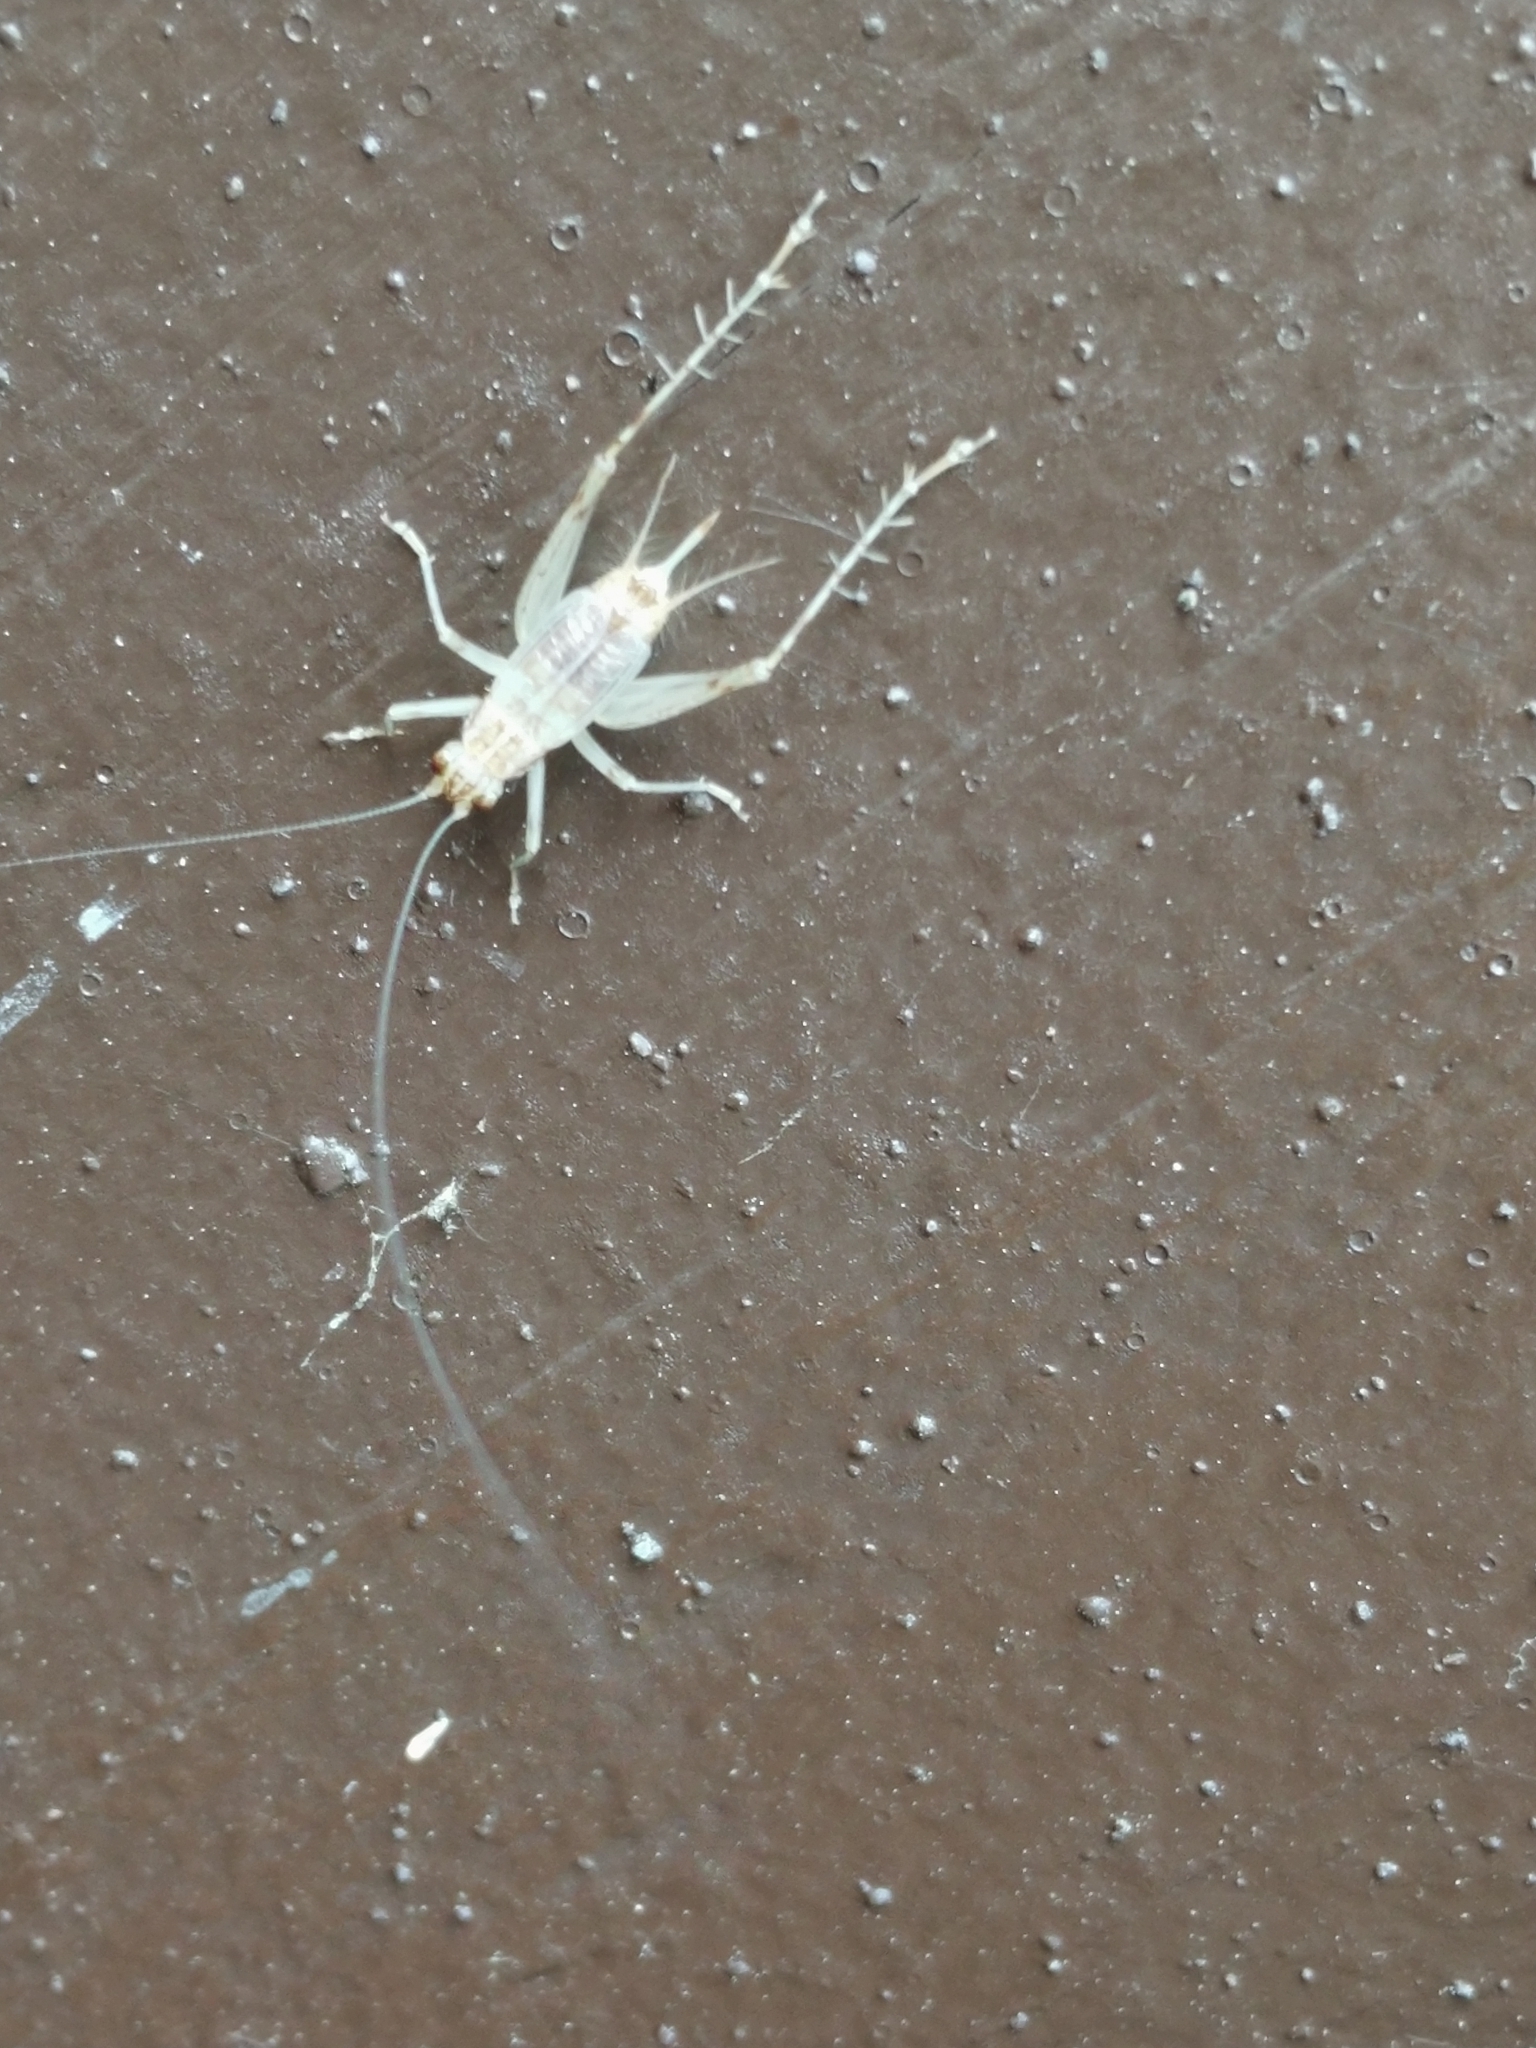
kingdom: Animalia
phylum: Arthropoda
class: Insecta
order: Orthoptera
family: Trigonidiidae
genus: Anaxipha
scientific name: Anaxipha exigua
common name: Say's bush cricket
